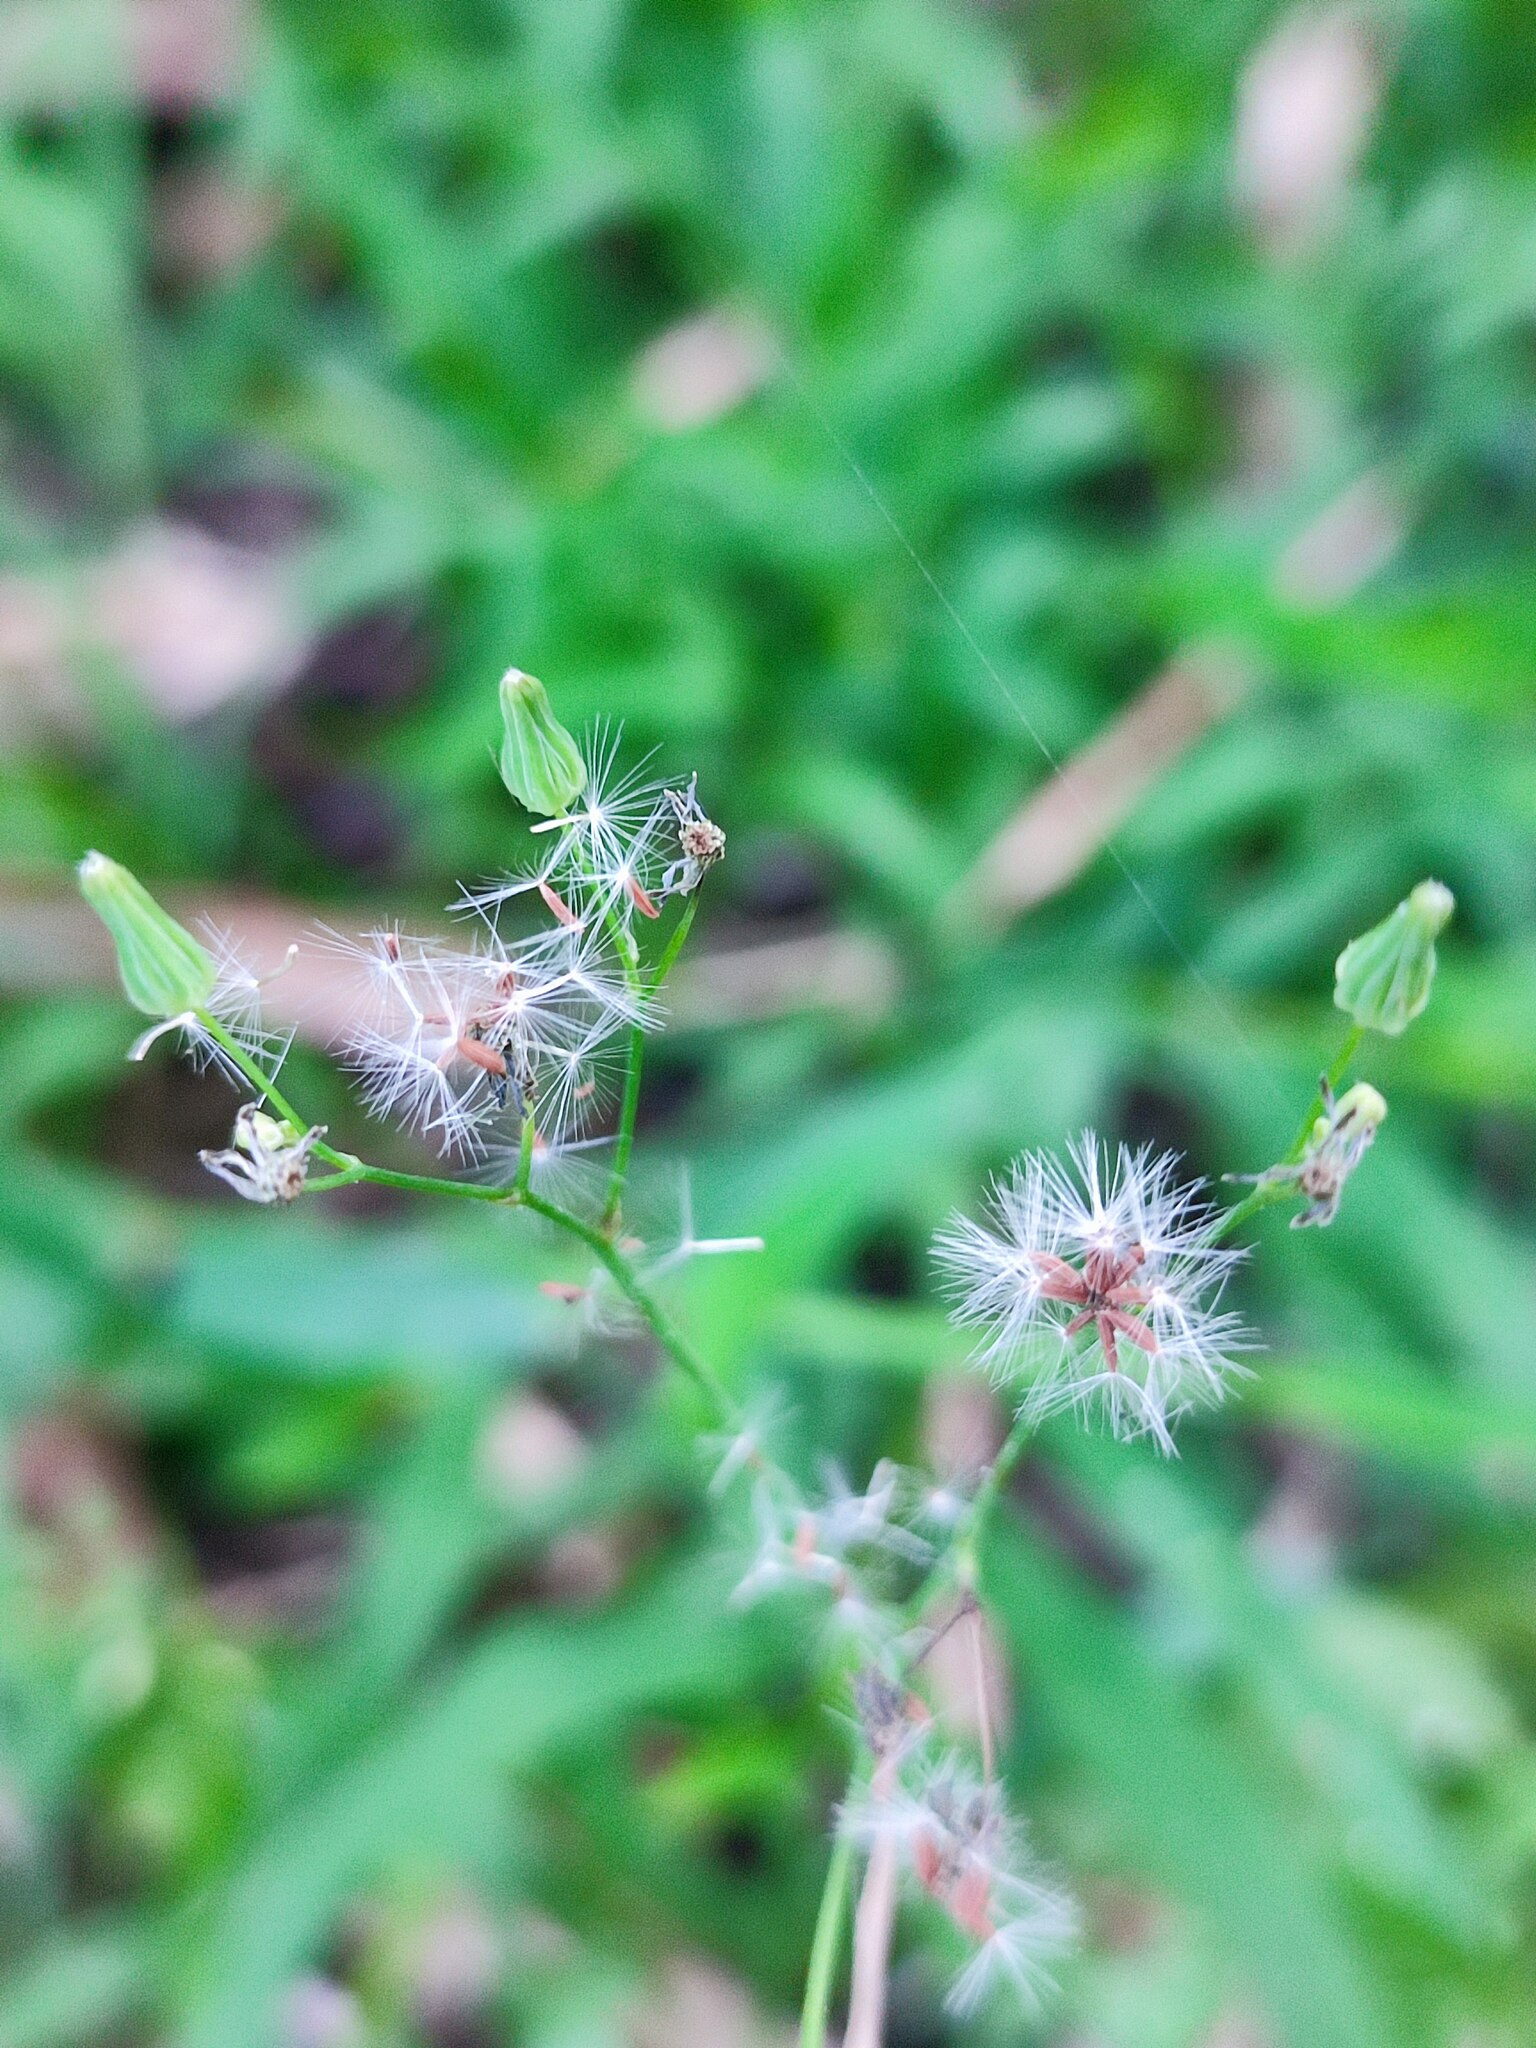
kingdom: Plantae
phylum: Tracheophyta
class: Magnoliopsida
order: Asterales
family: Asteraceae
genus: Youngia
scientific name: Youngia japonica
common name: Oriental false hawksbeard
